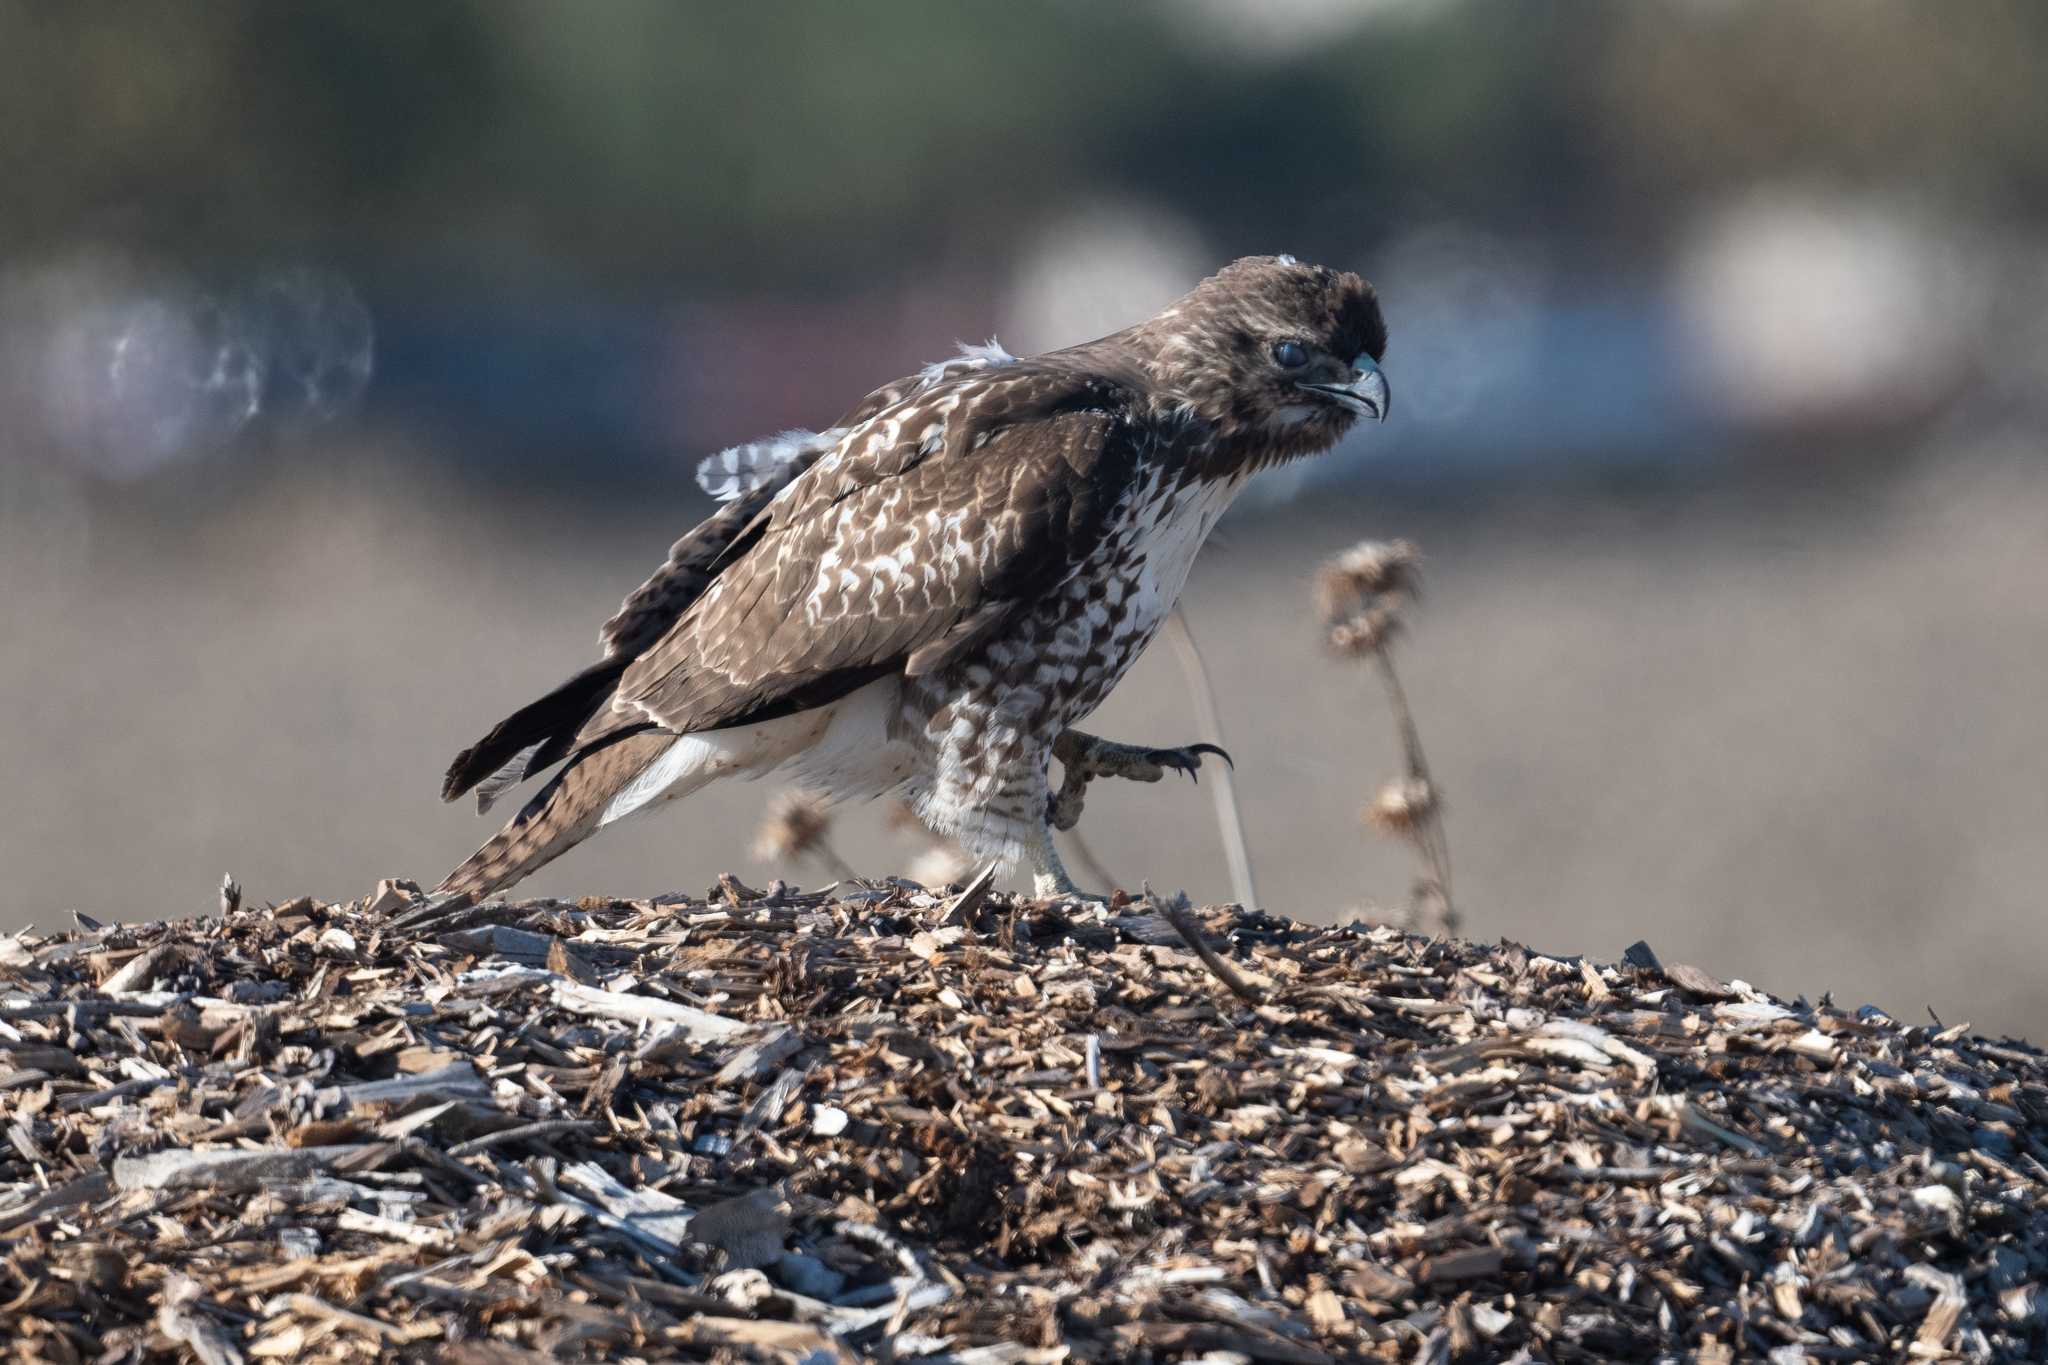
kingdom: Animalia
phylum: Chordata
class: Aves
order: Accipitriformes
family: Accipitridae
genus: Buteo
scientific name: Buteo jamaicensis
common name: Red-tailed hawk
